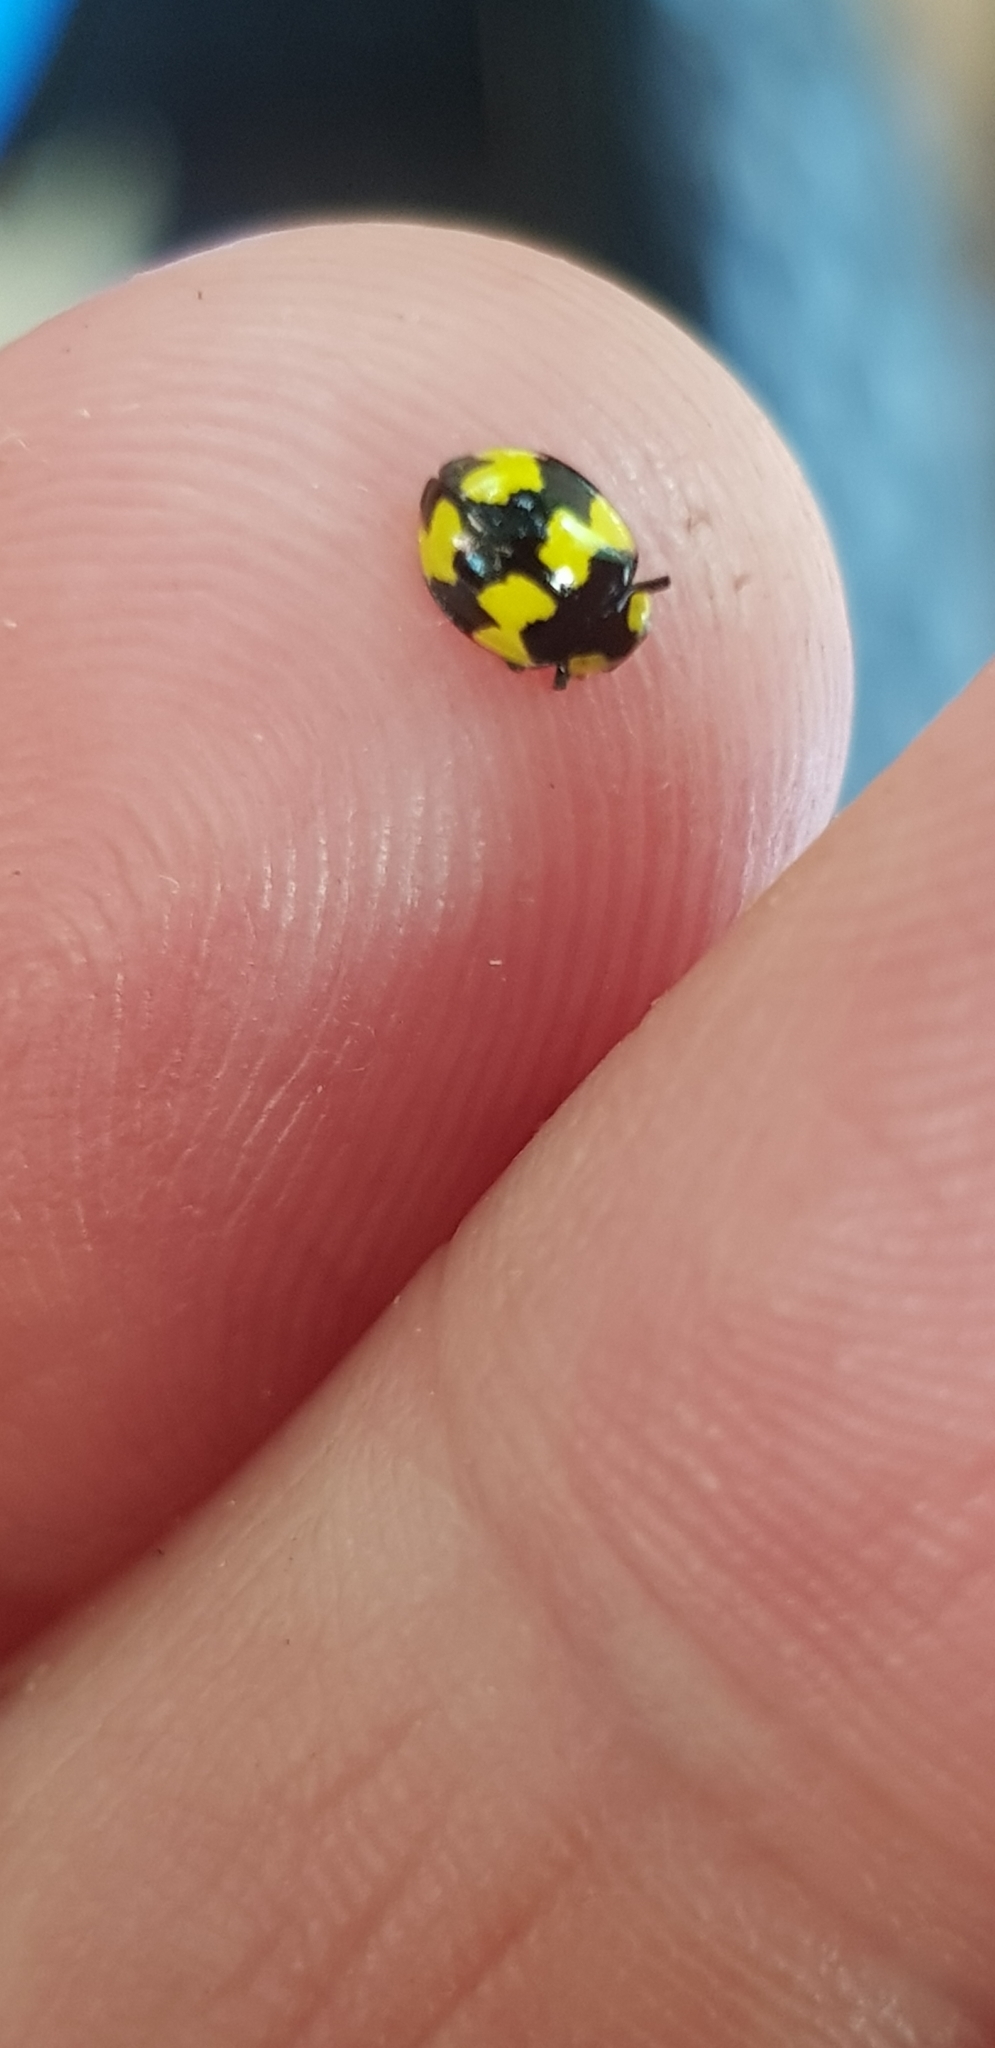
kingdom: Animalia
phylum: Arthropoda
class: Insecta
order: Coleoptera
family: Coccinellidae
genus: Illeis
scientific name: Illeis galbula
